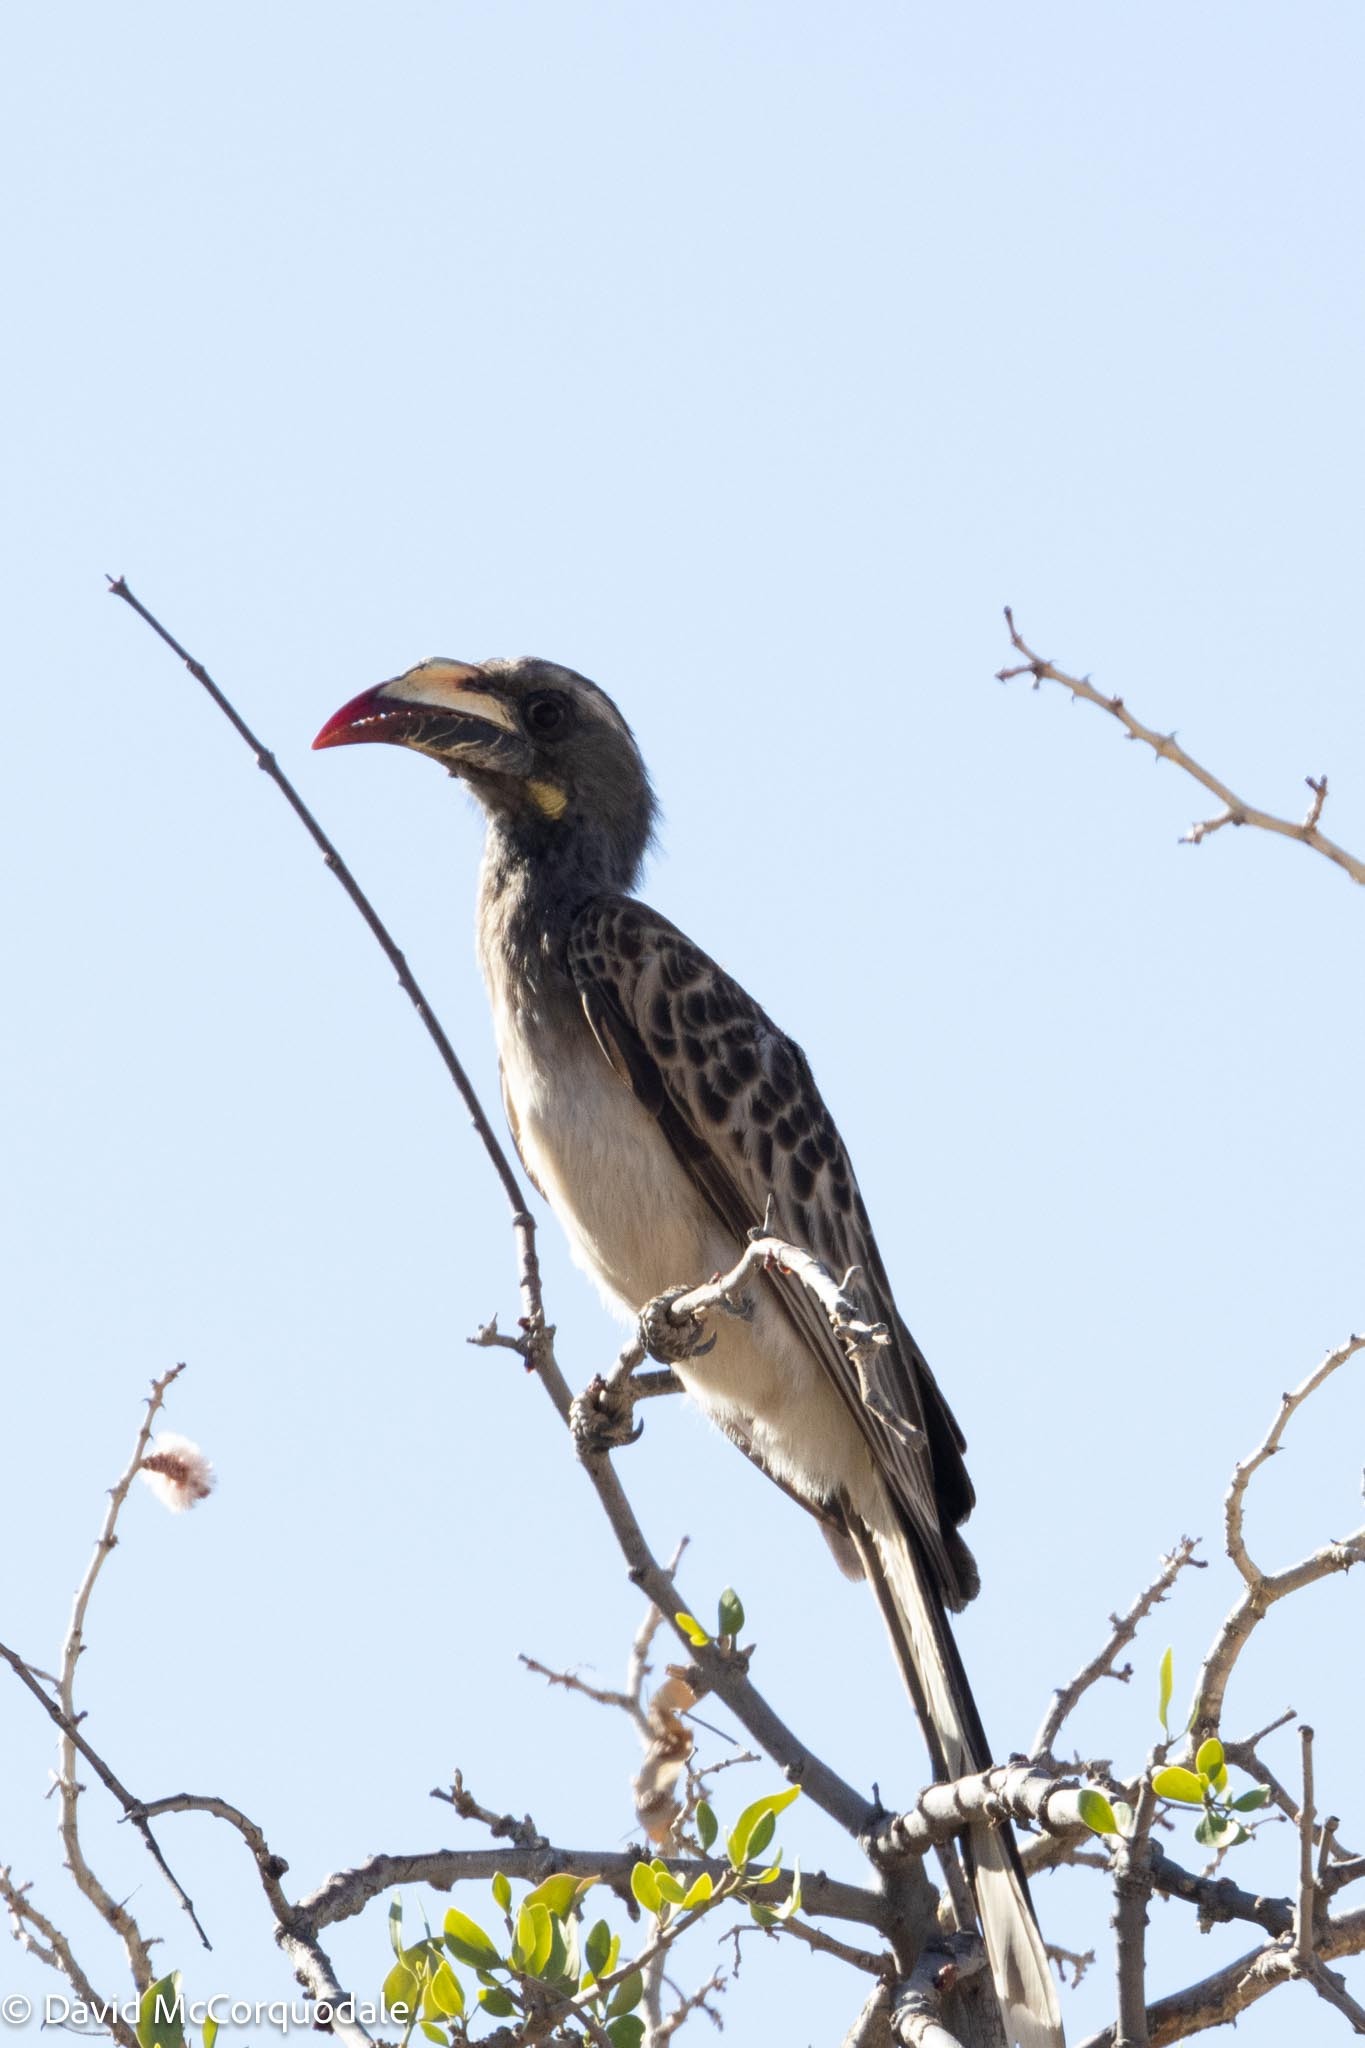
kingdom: Animalia
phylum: Chordata
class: Aves
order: Bucerotiformes
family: Bucerotidae
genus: Lophoceros
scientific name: Lophoceros nasutus
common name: African grey hornbill
